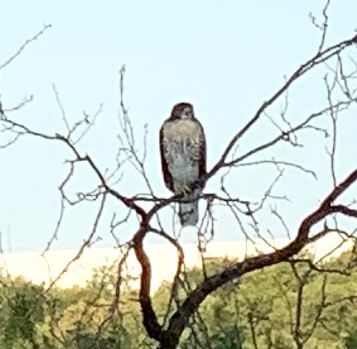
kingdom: Animalia
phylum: Chordata
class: Aves
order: Accipitriformes
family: Accipitridae
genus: Buteo
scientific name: Buteo jamaicensis
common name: Red-tailed hawk
